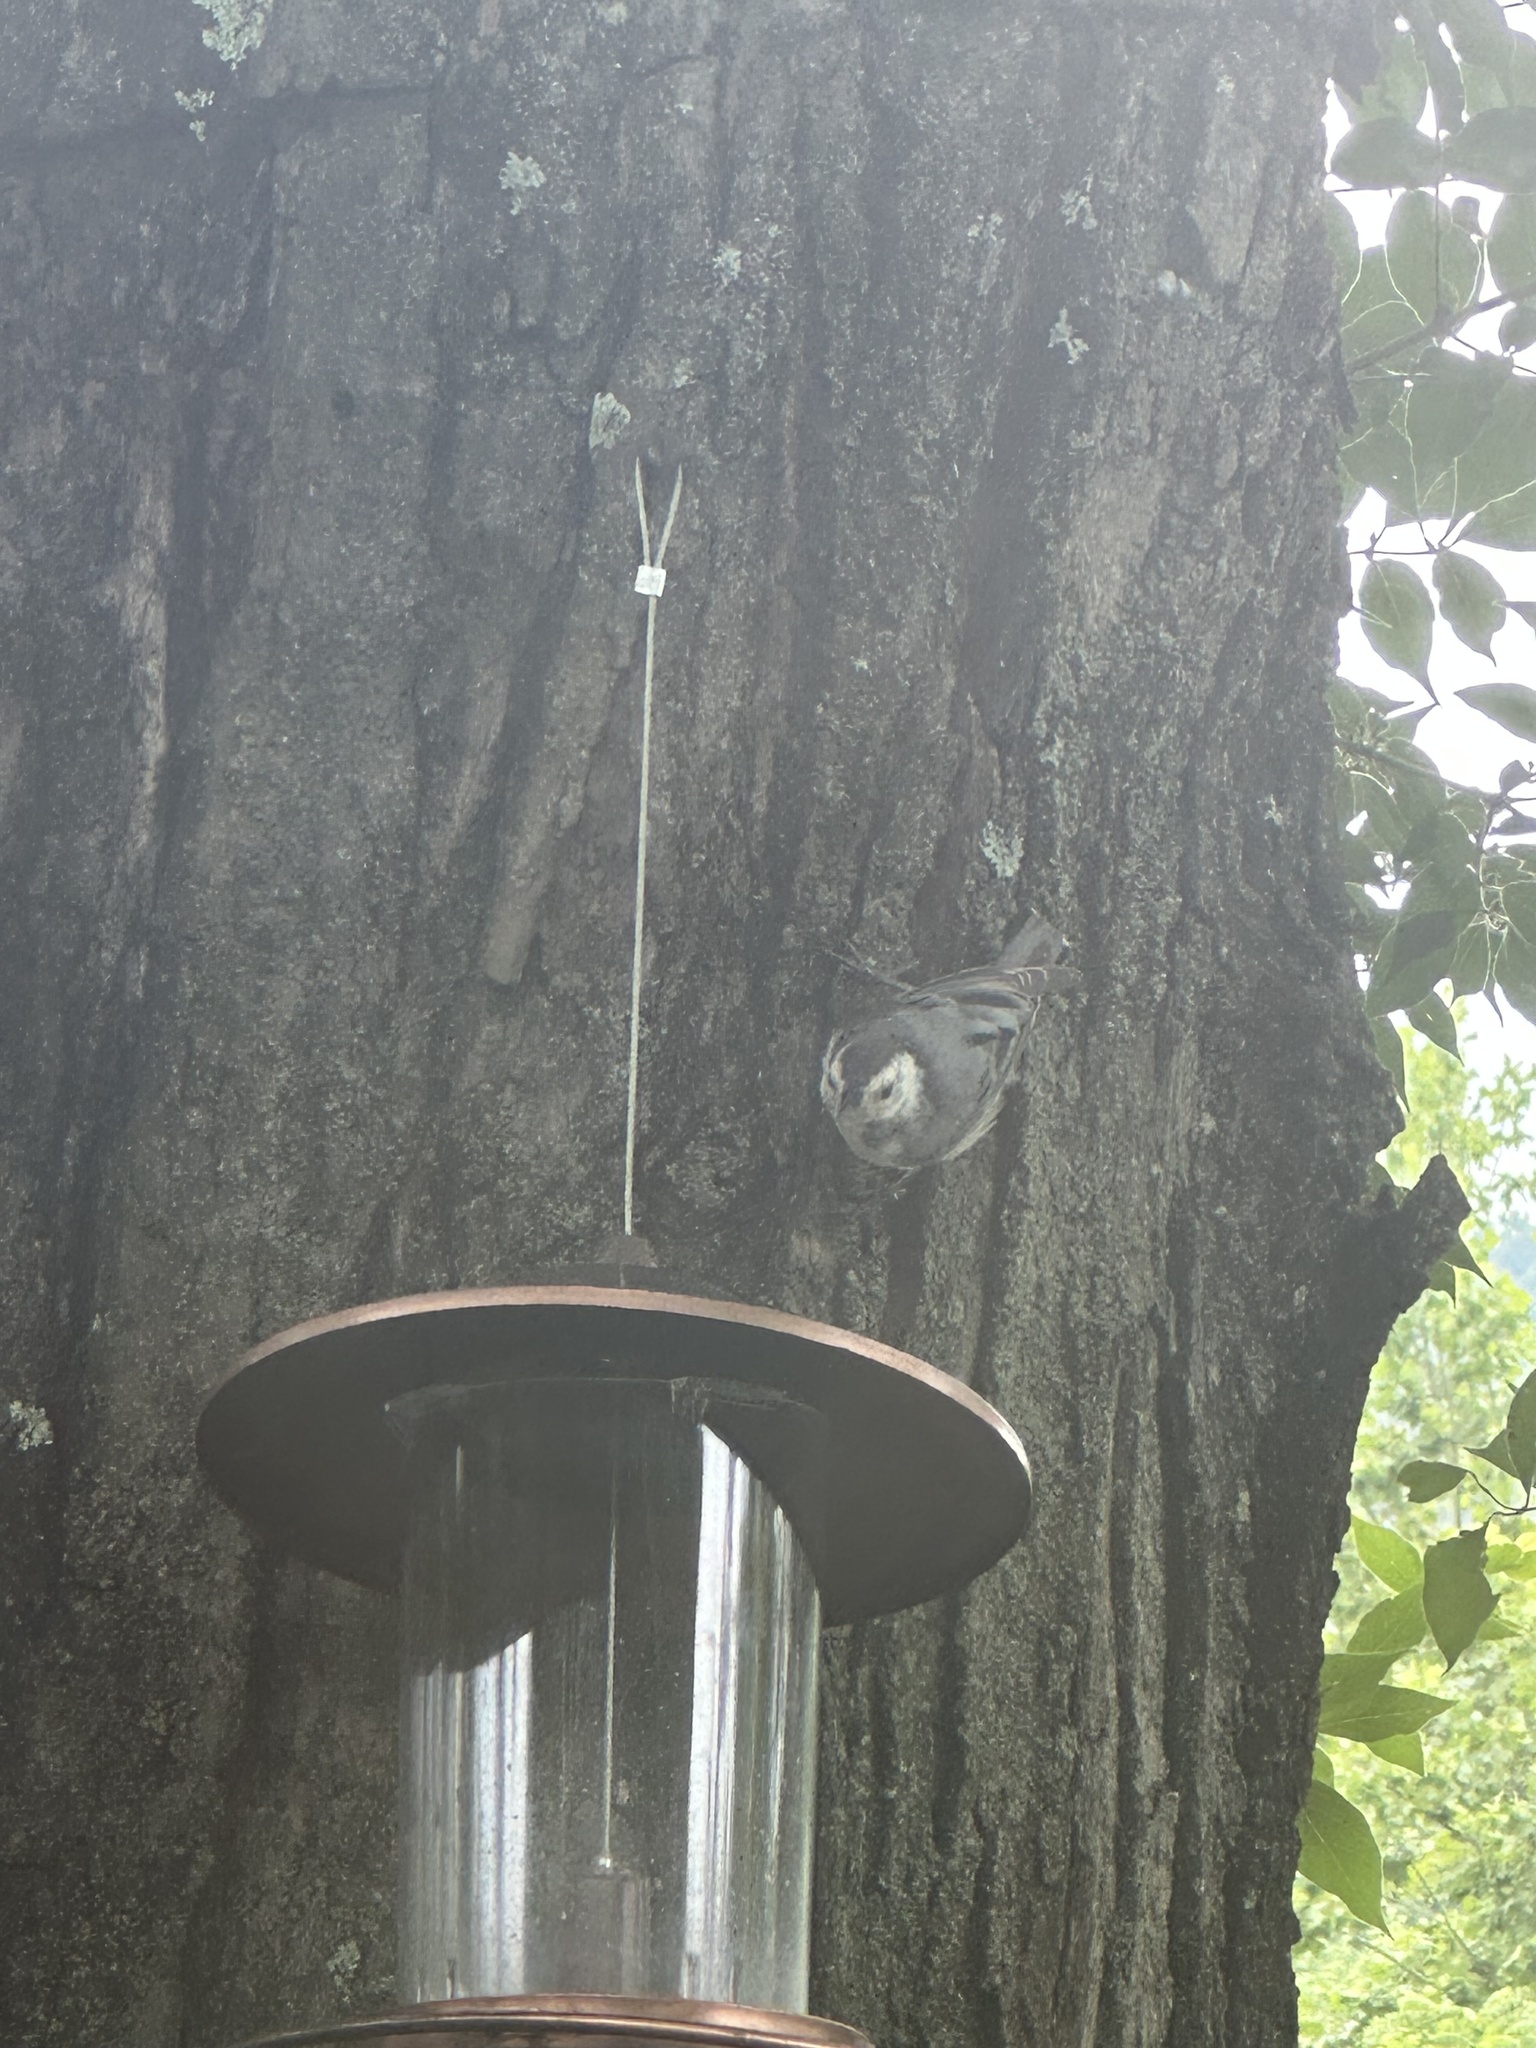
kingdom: Animalia
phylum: Chordata
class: Aves
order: Passeriformes
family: Sittidae
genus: Sitta
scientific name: Sitta carolinensis
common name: White-breasted nuthatch
